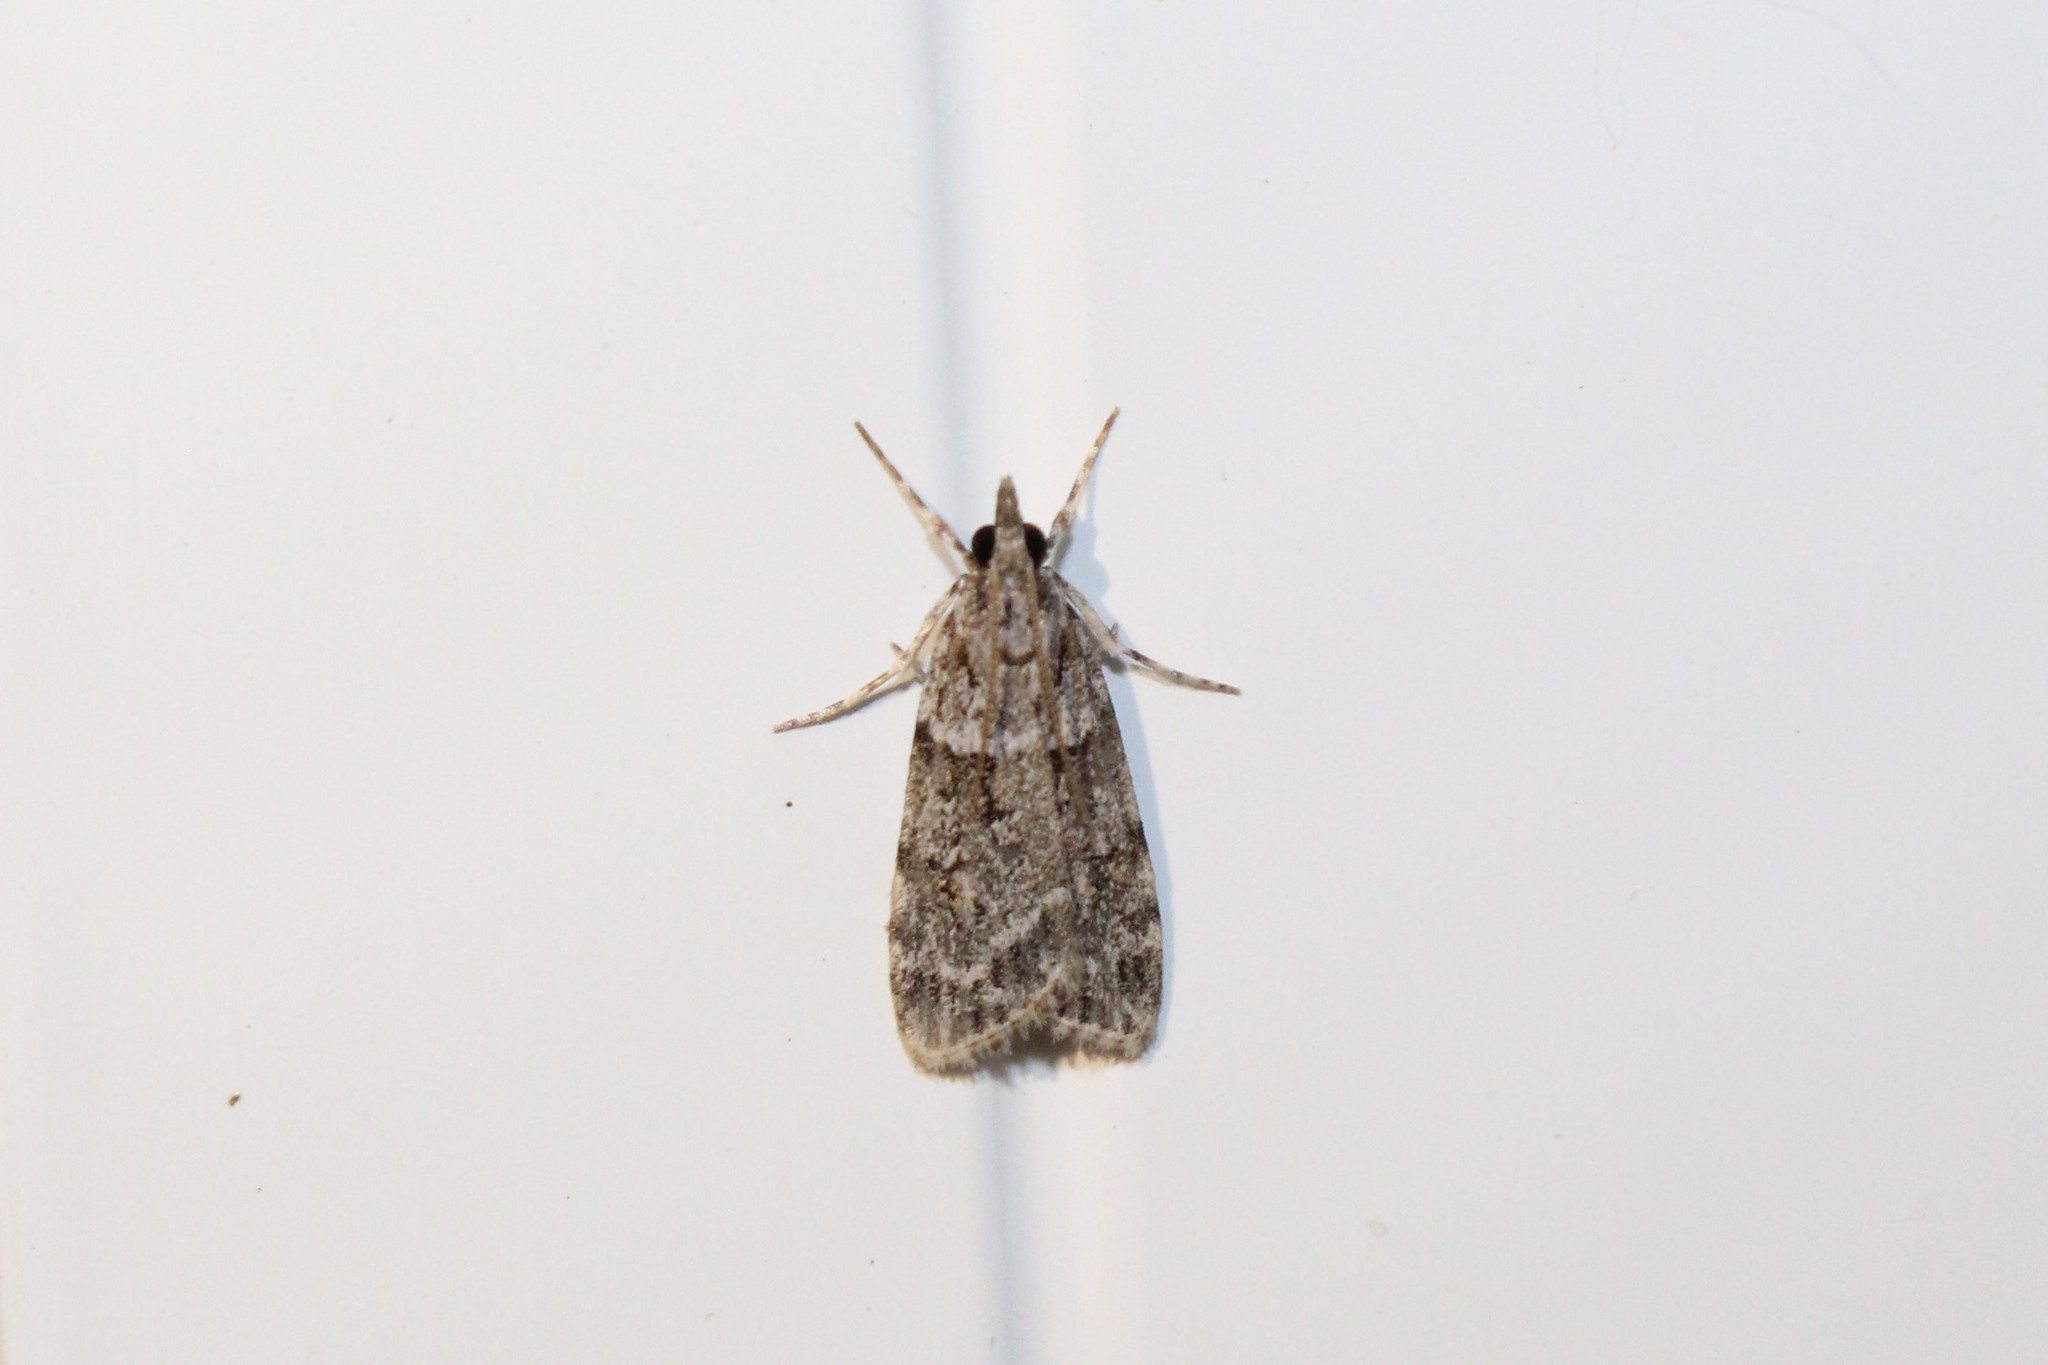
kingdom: Animalia
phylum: Arthropoda
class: Insecta
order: Lepidoptera
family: Crambidae
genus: Scoparia
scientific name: Scoparia biplagialis
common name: Double-striped scoparia moth
